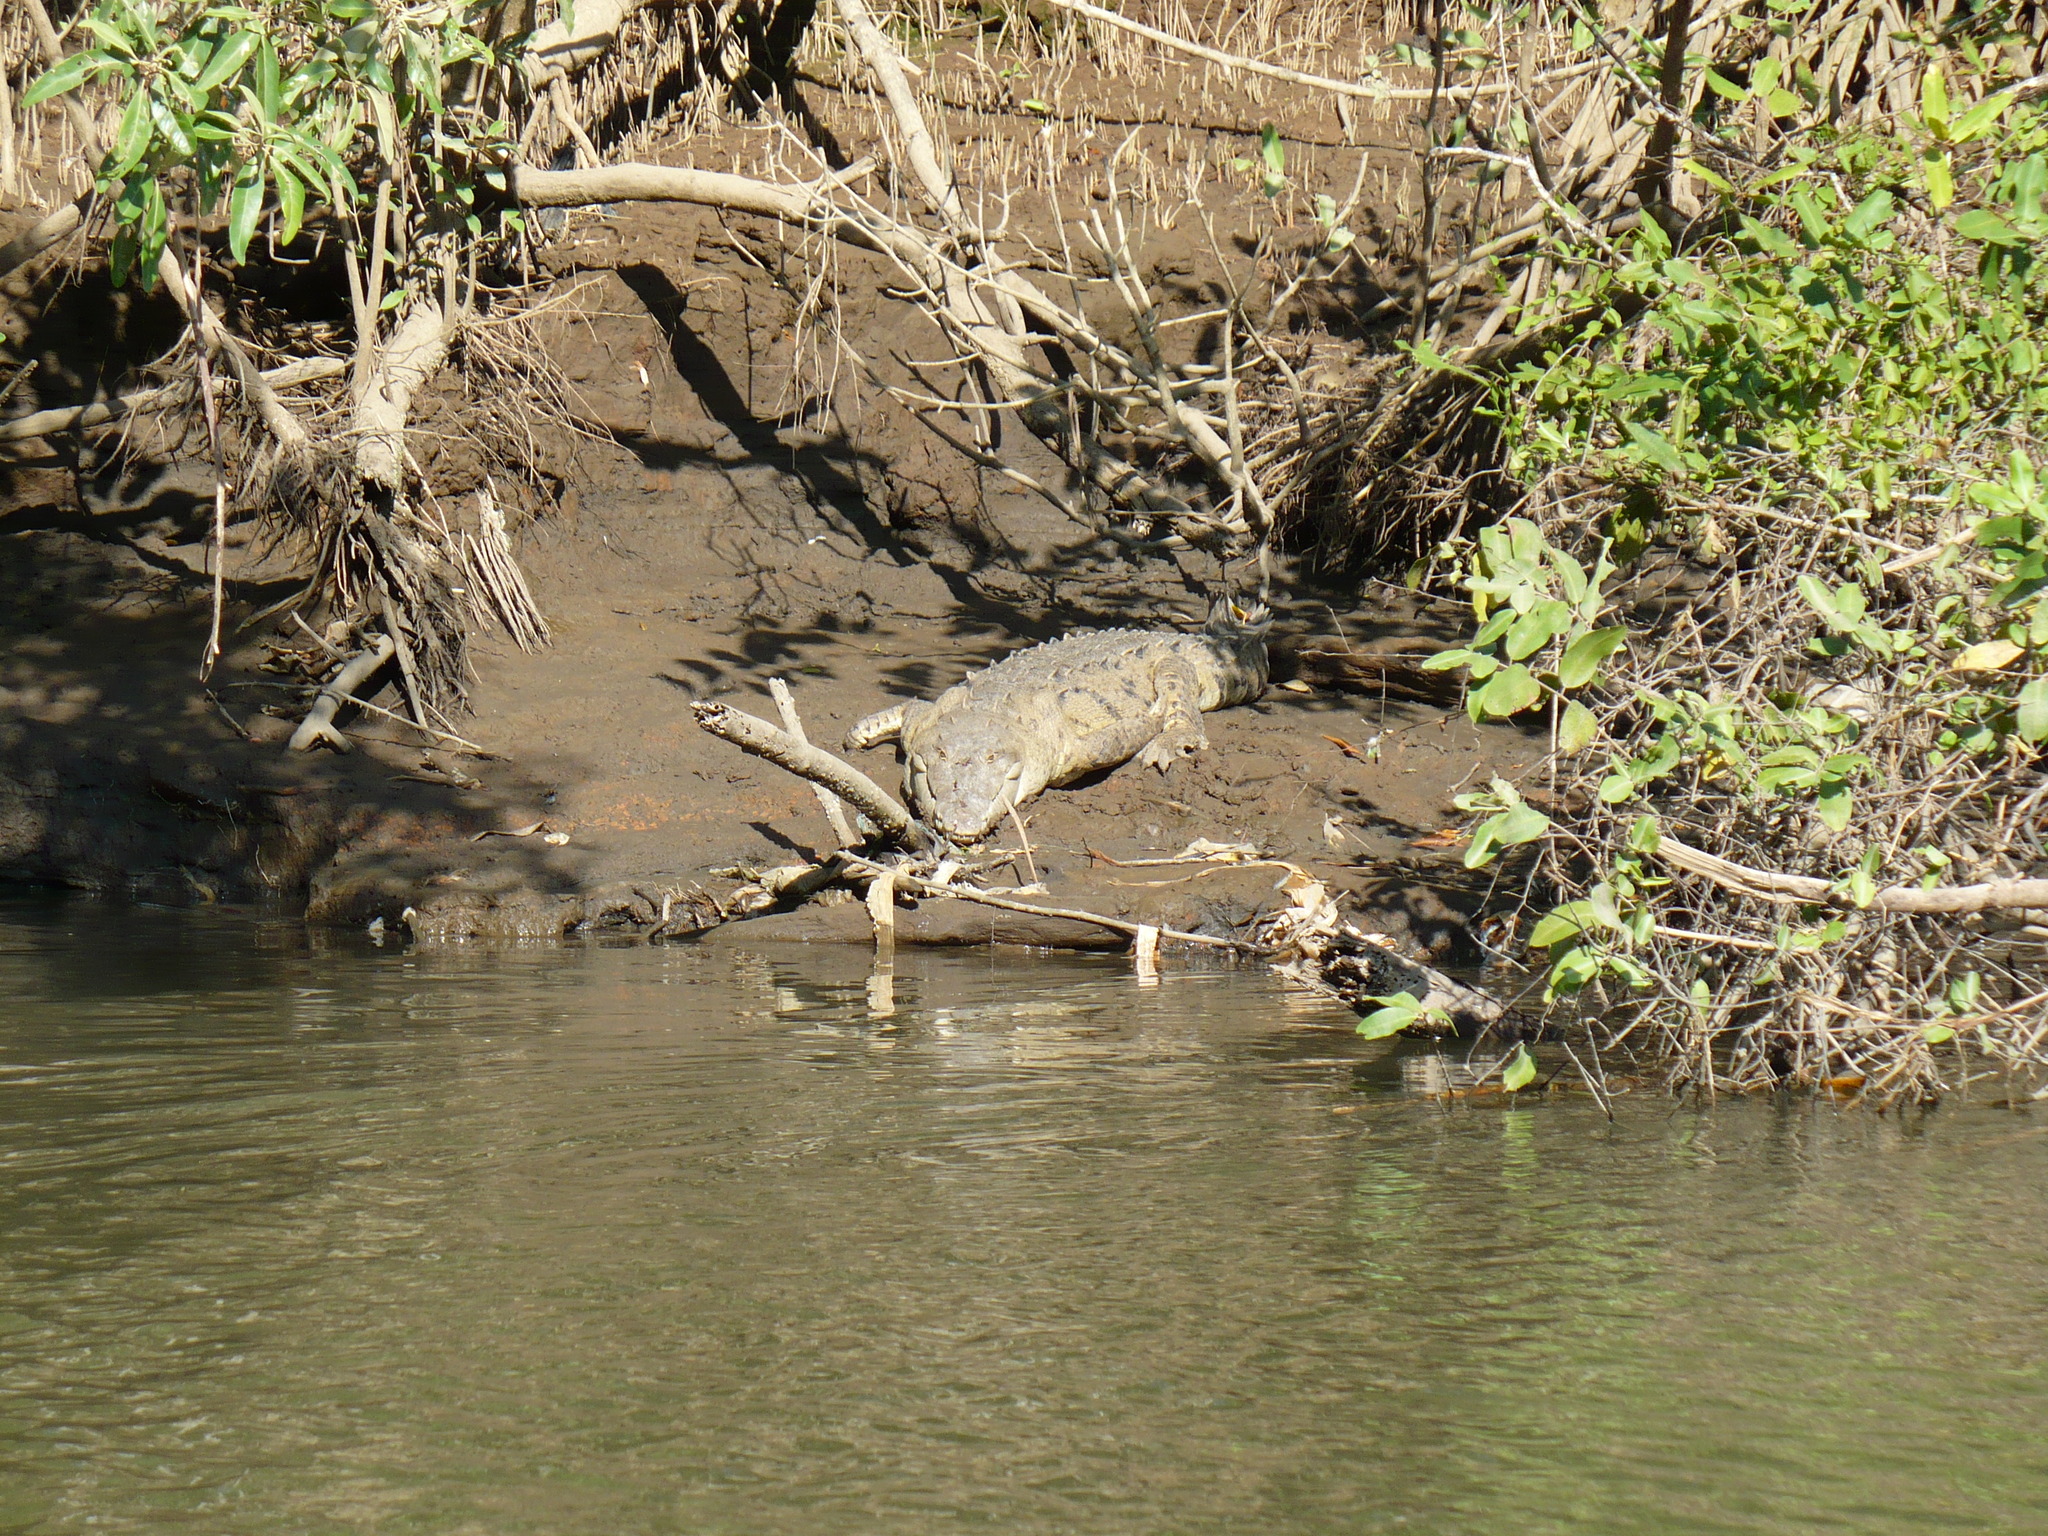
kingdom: Animalia
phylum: Chordata
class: Crocodylia
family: Crocodylidae
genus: Crocodylus
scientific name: Crocodylus acutus
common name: American crocodile
